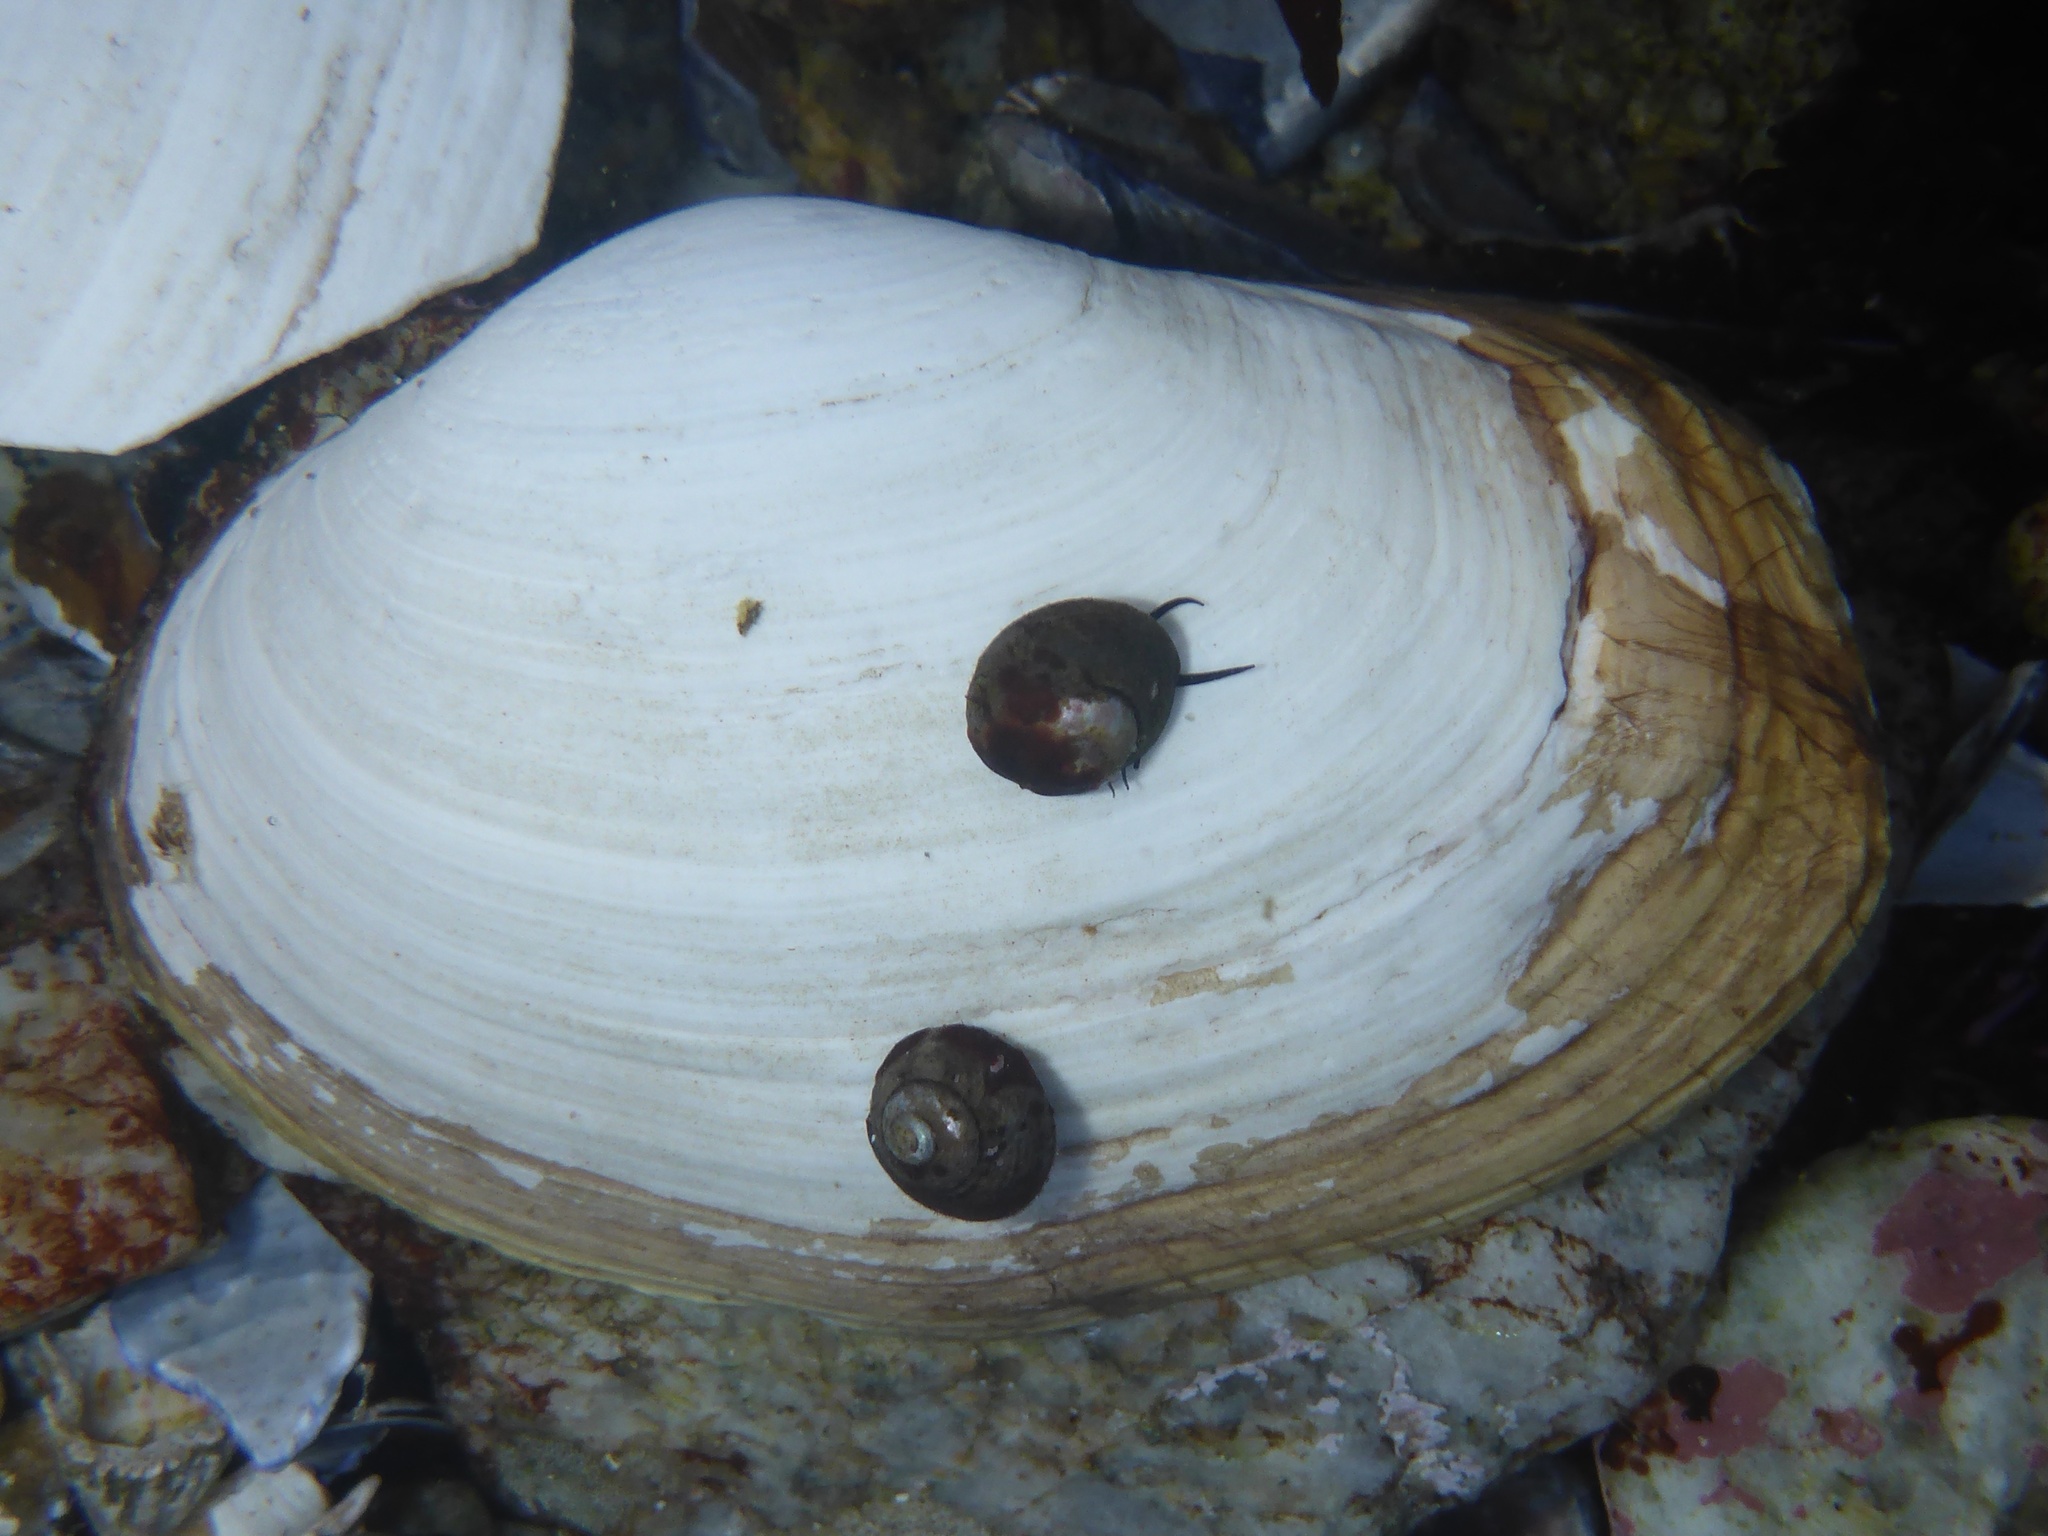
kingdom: Animalia
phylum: Mollusca
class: Bivalvia
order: Venerida
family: Mactridae
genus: Tresus
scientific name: Tresus nuttallii
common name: Pacific gaper clam
